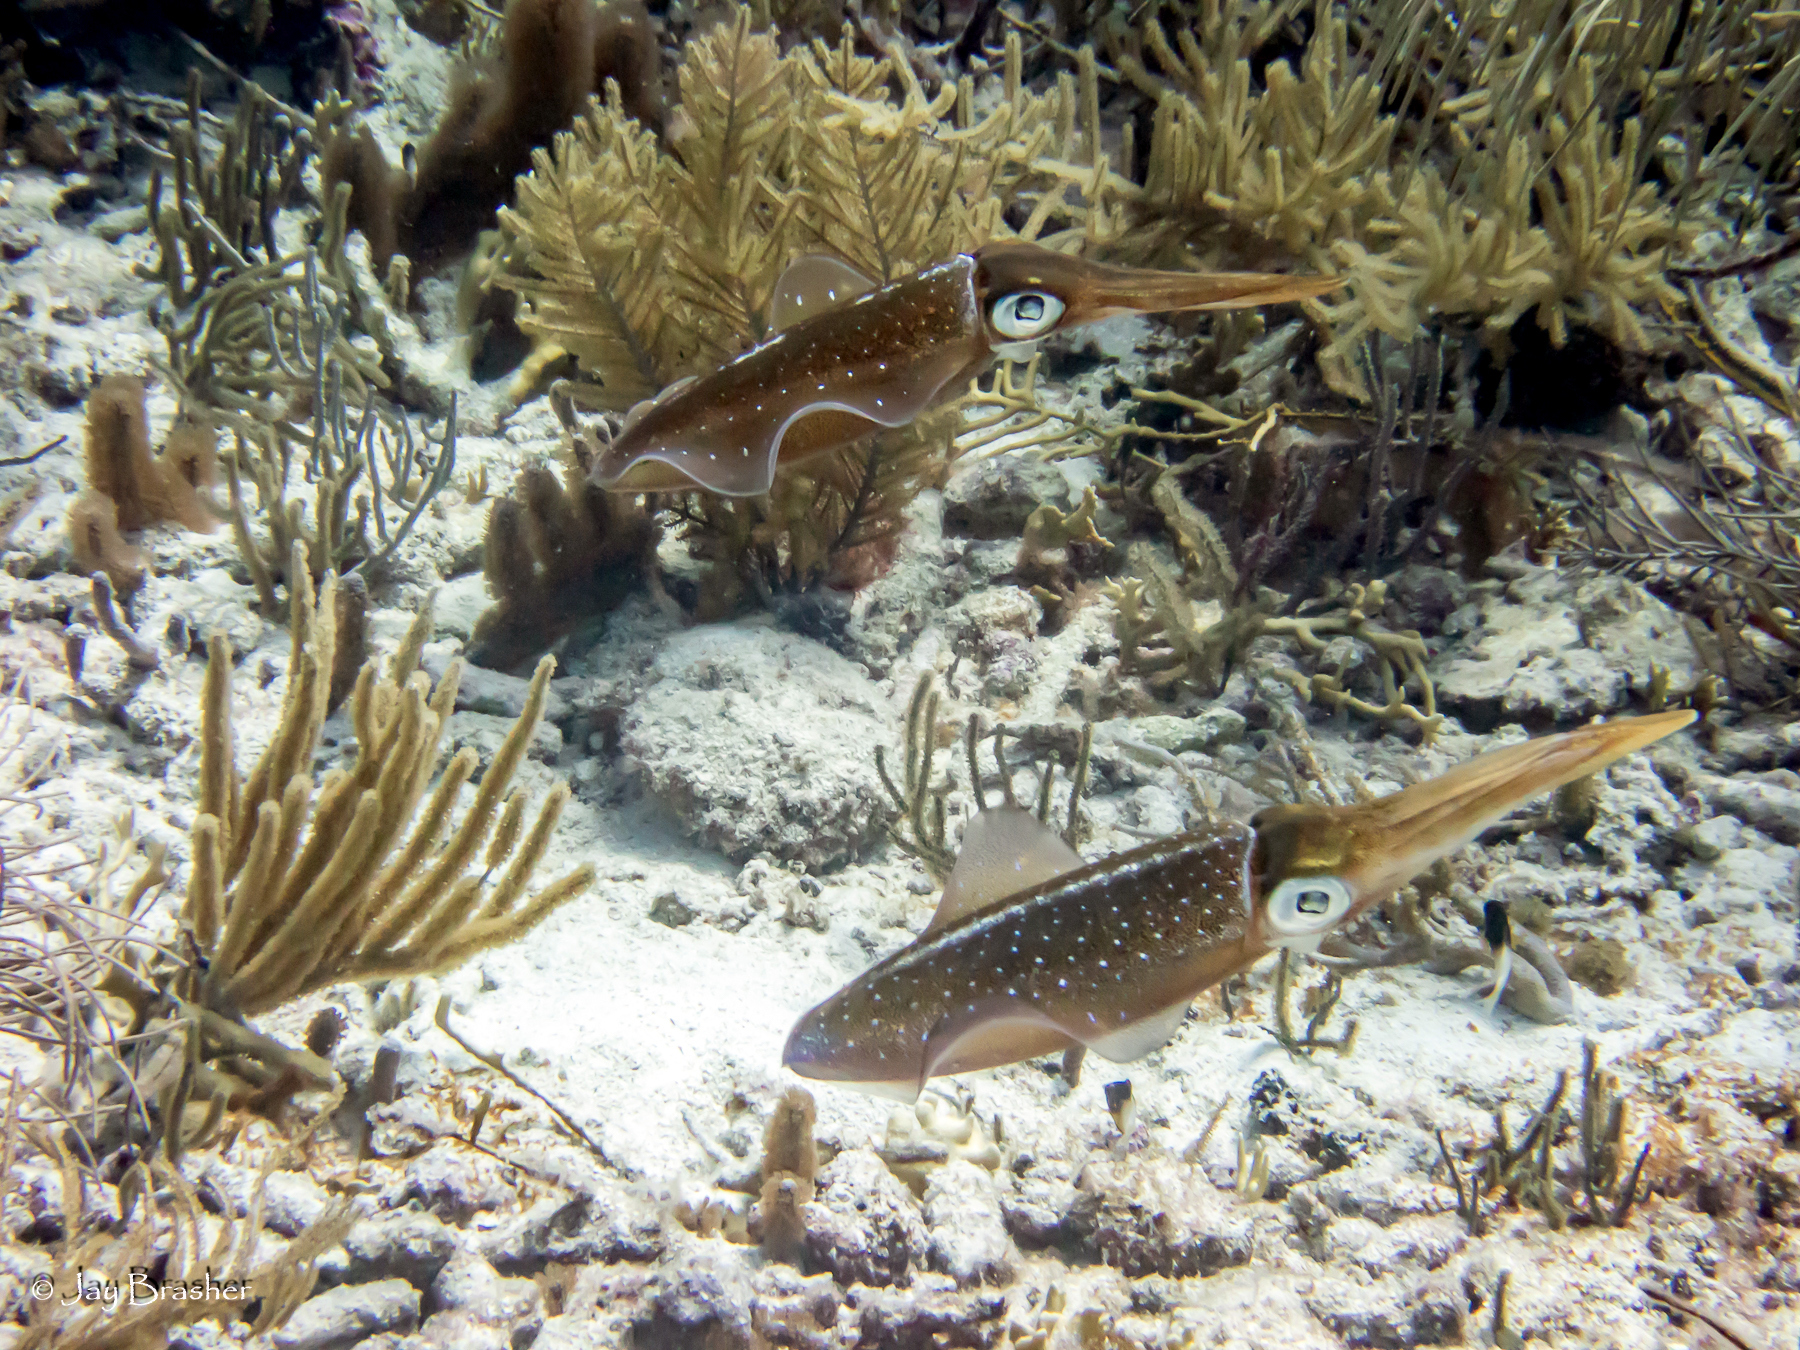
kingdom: Animalia
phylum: Mollusca
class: Cephalopoda
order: Myopsida
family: Loliginidae
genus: Sepioteuthis
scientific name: Sepioteuthis sepioidea
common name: Caribbean reef squid
